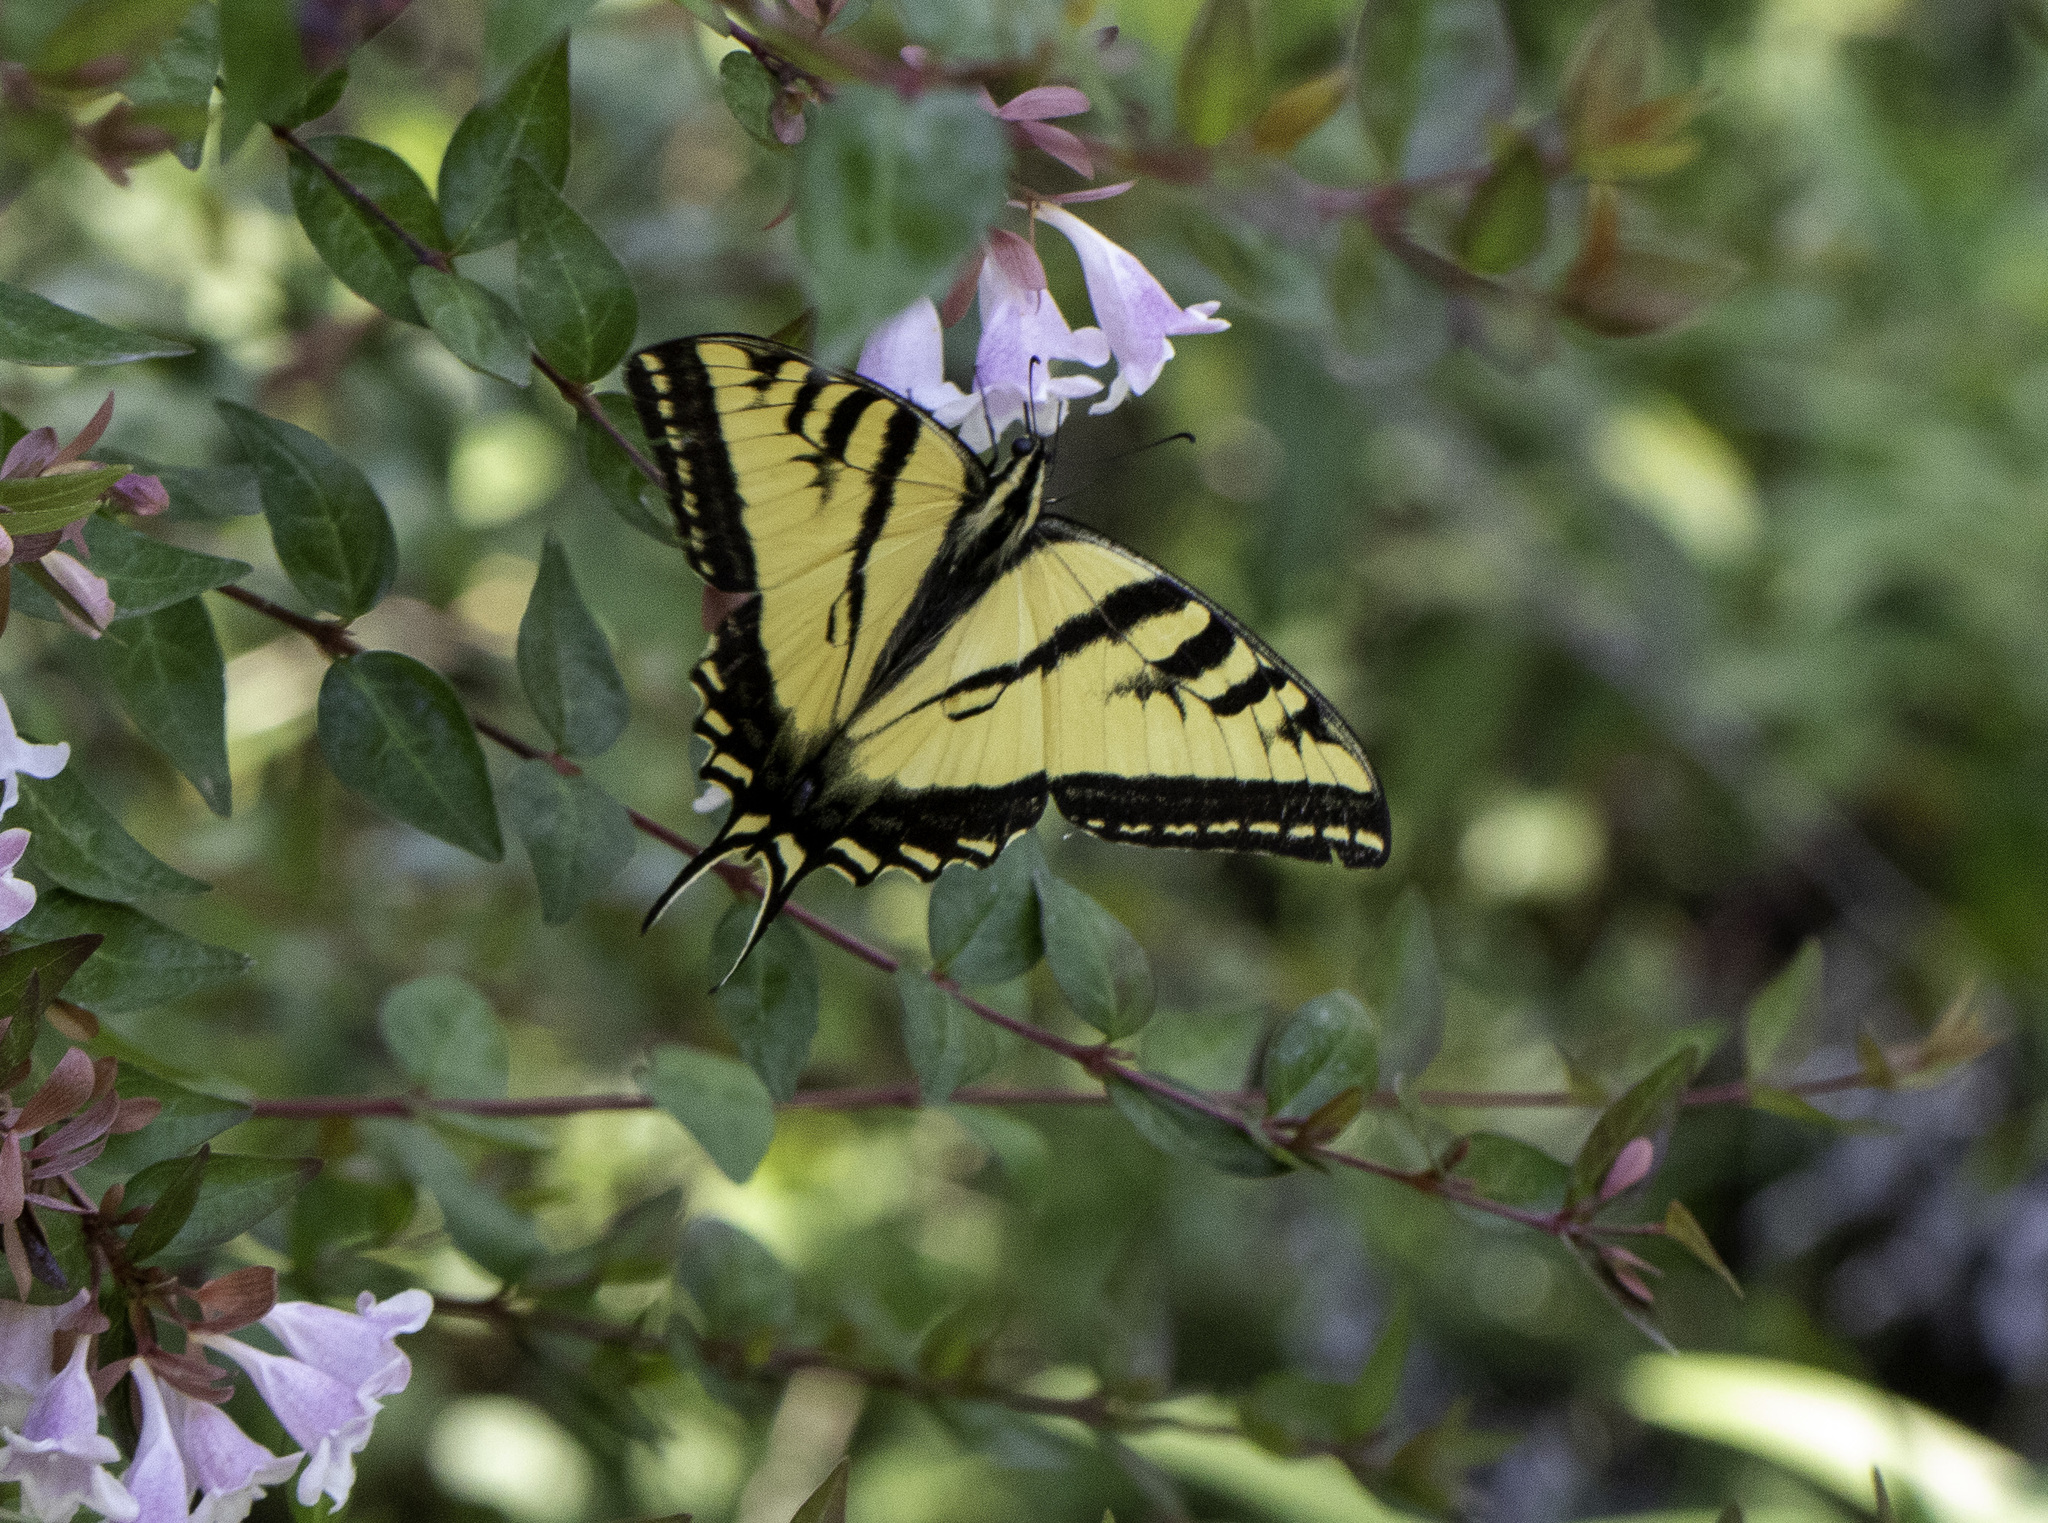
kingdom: Animalia
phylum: Arthropoda
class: Insecta
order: Lepidoptera
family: Papilionidae
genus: Papilio
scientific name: Papilio rutulus
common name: Western tiger swallowtail
